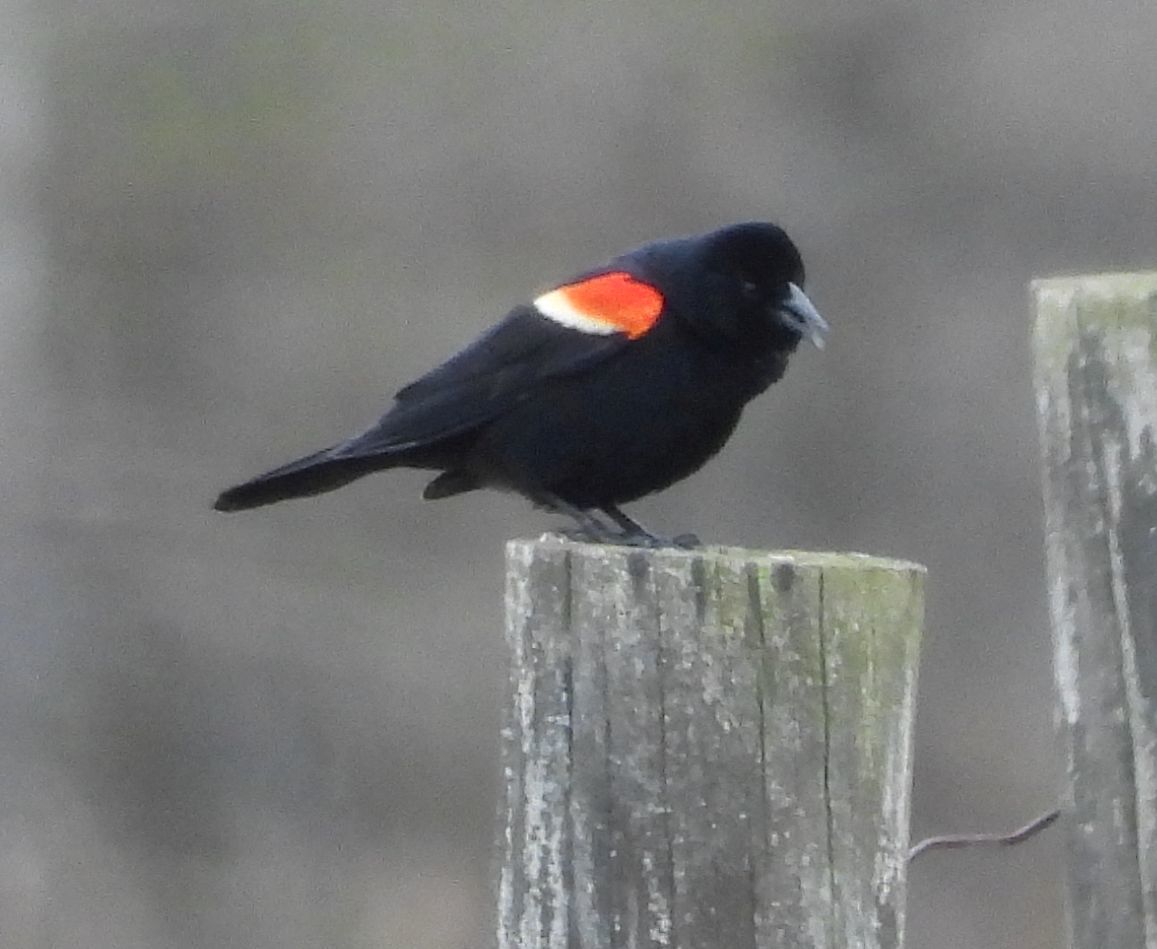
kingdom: Animalia
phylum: Chordata
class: Aves
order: Passeriformes
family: Icteridae
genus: Agelaius
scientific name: Agelaius phoeniceus
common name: Red-winged blackbird
